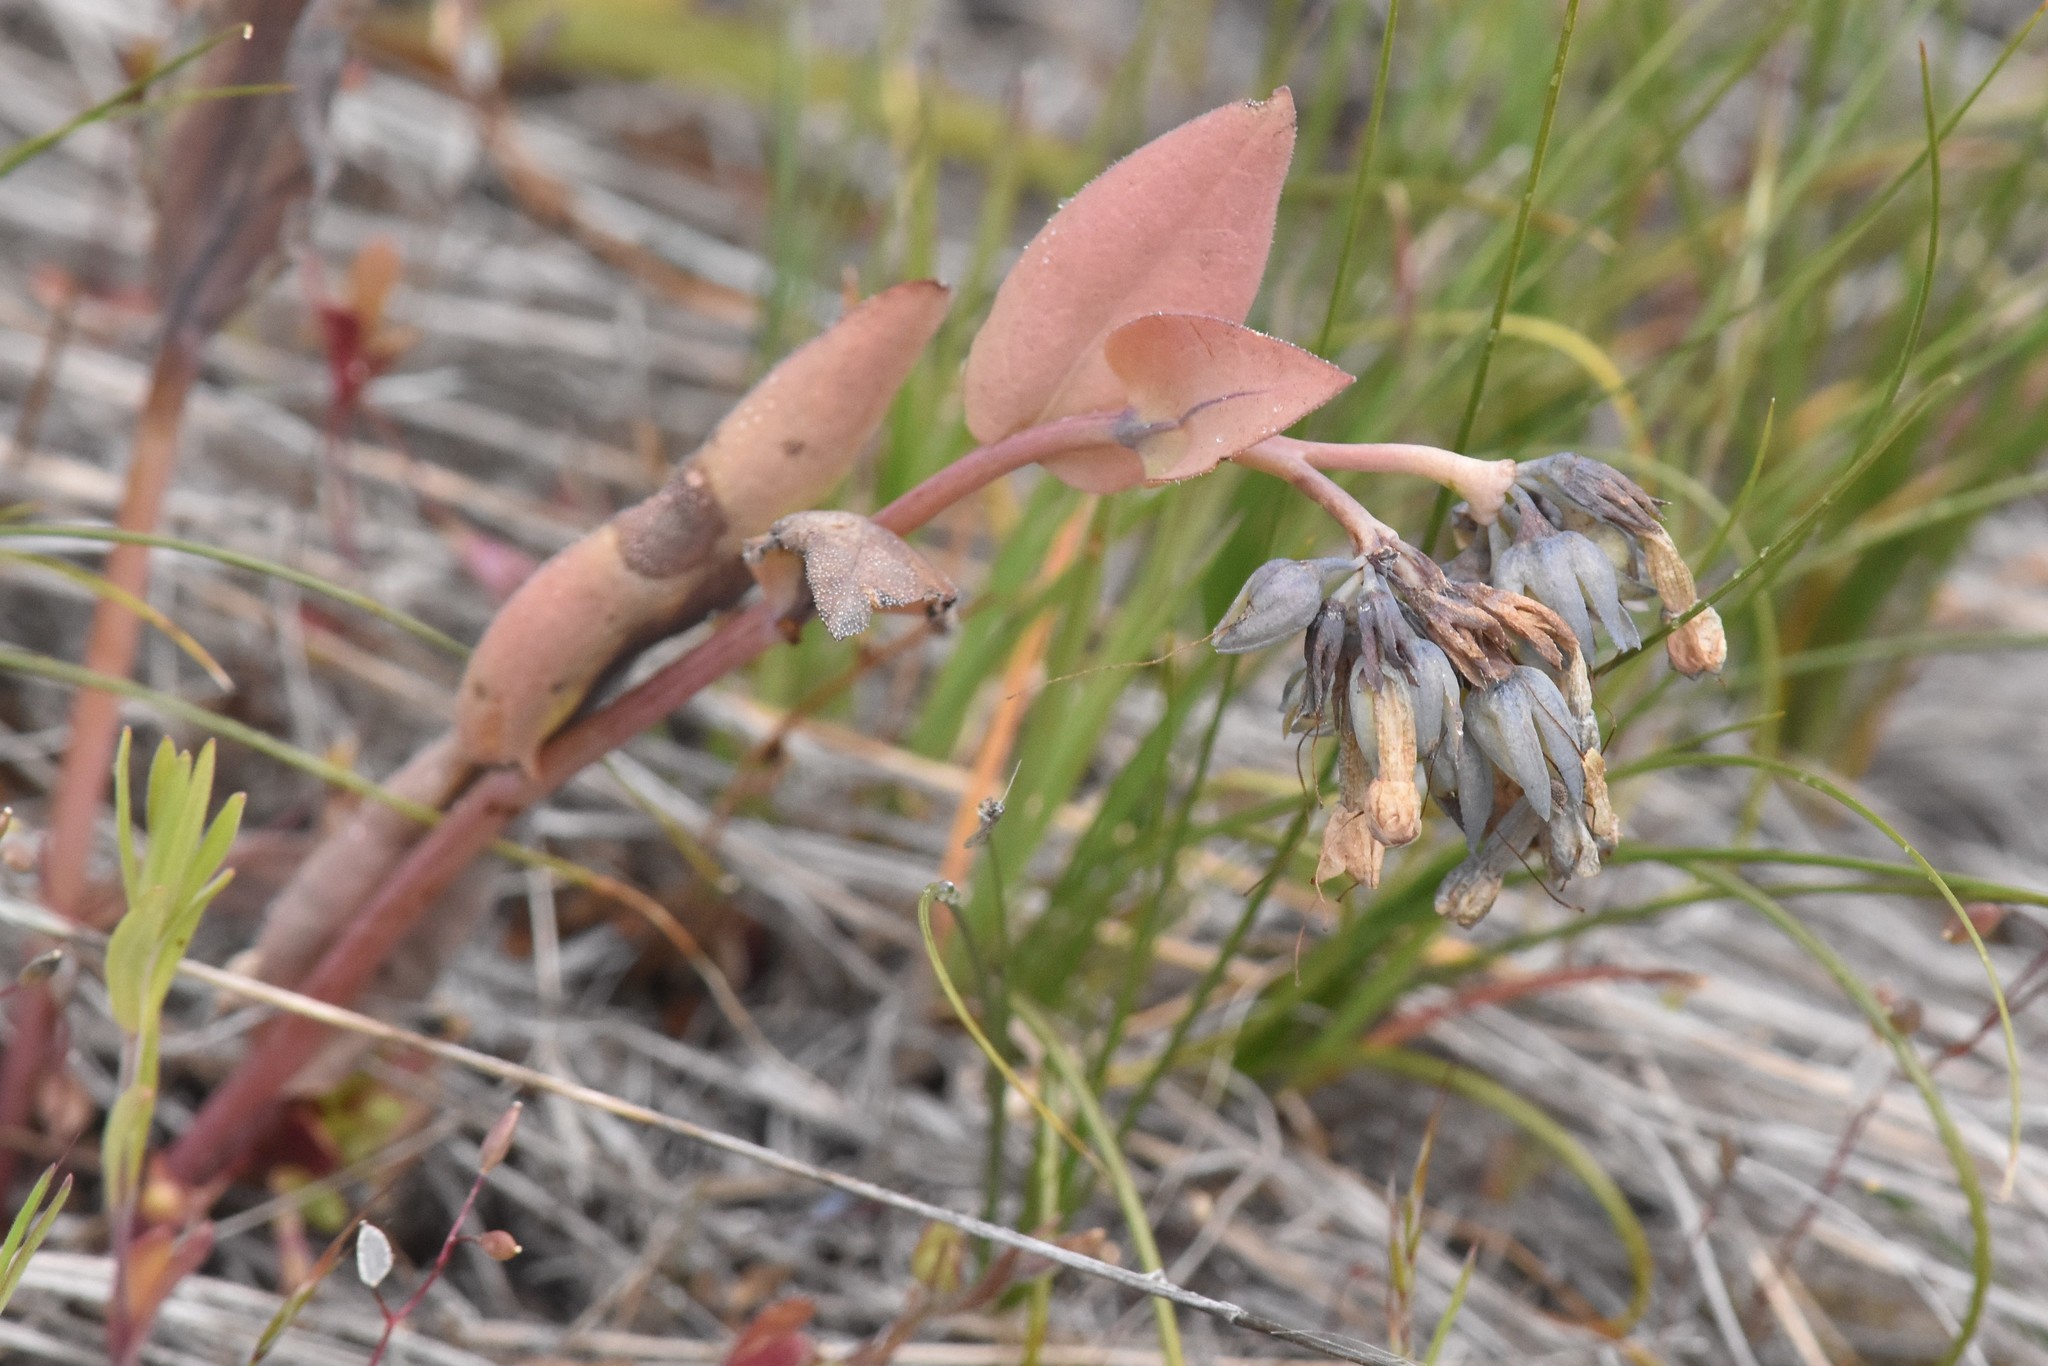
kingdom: Plantae
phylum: Tracheophyta
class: Magnoliopsida
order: Boraginales
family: Boraginaceae
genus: Mertensia
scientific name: Mertensia longiflora
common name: Large-flowered bluebells
